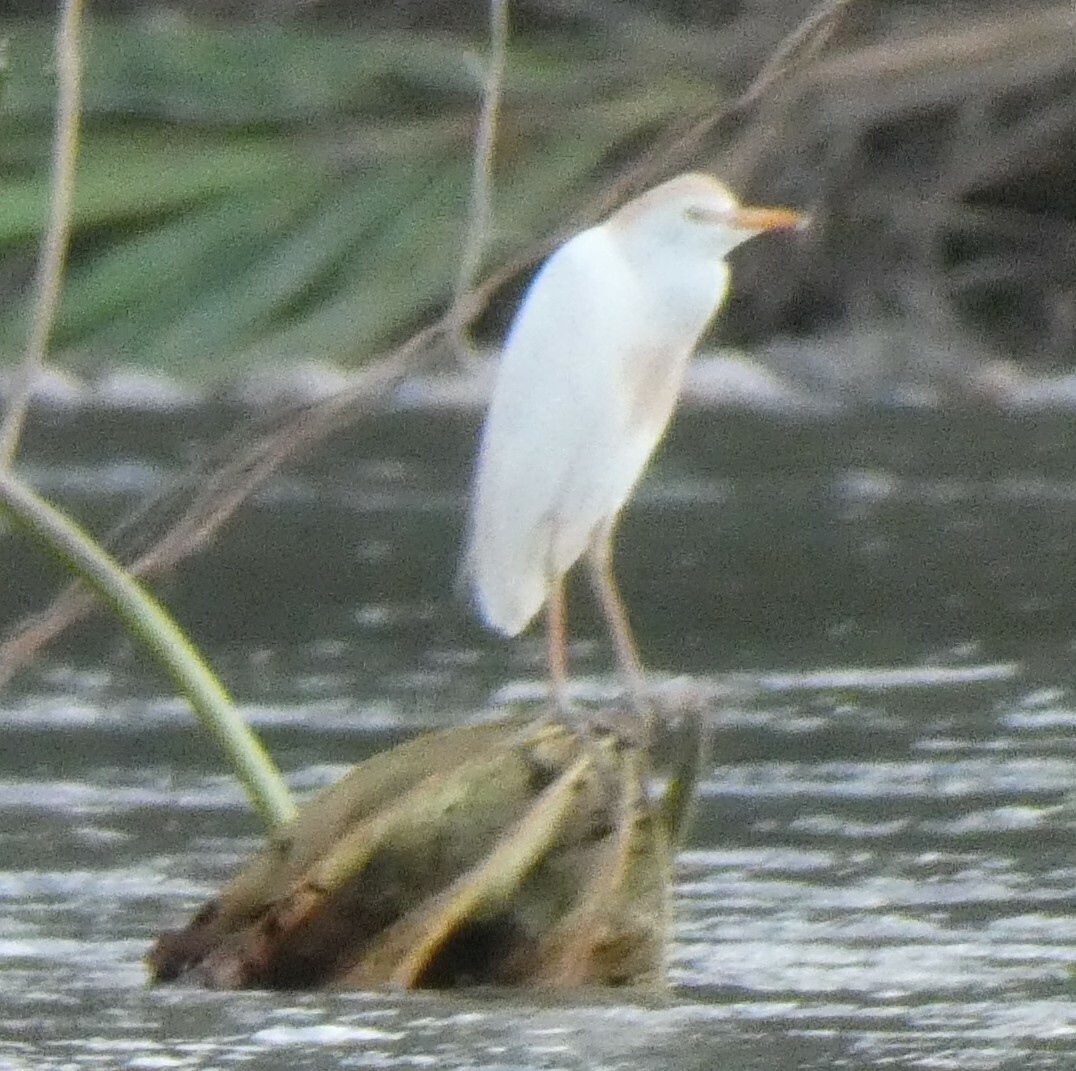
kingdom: Animalia
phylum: Chordata
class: Aves
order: Pelecaniformes
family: Ardeidae
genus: Bubulcus
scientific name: Bubulcus ibis
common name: Cattle egret
